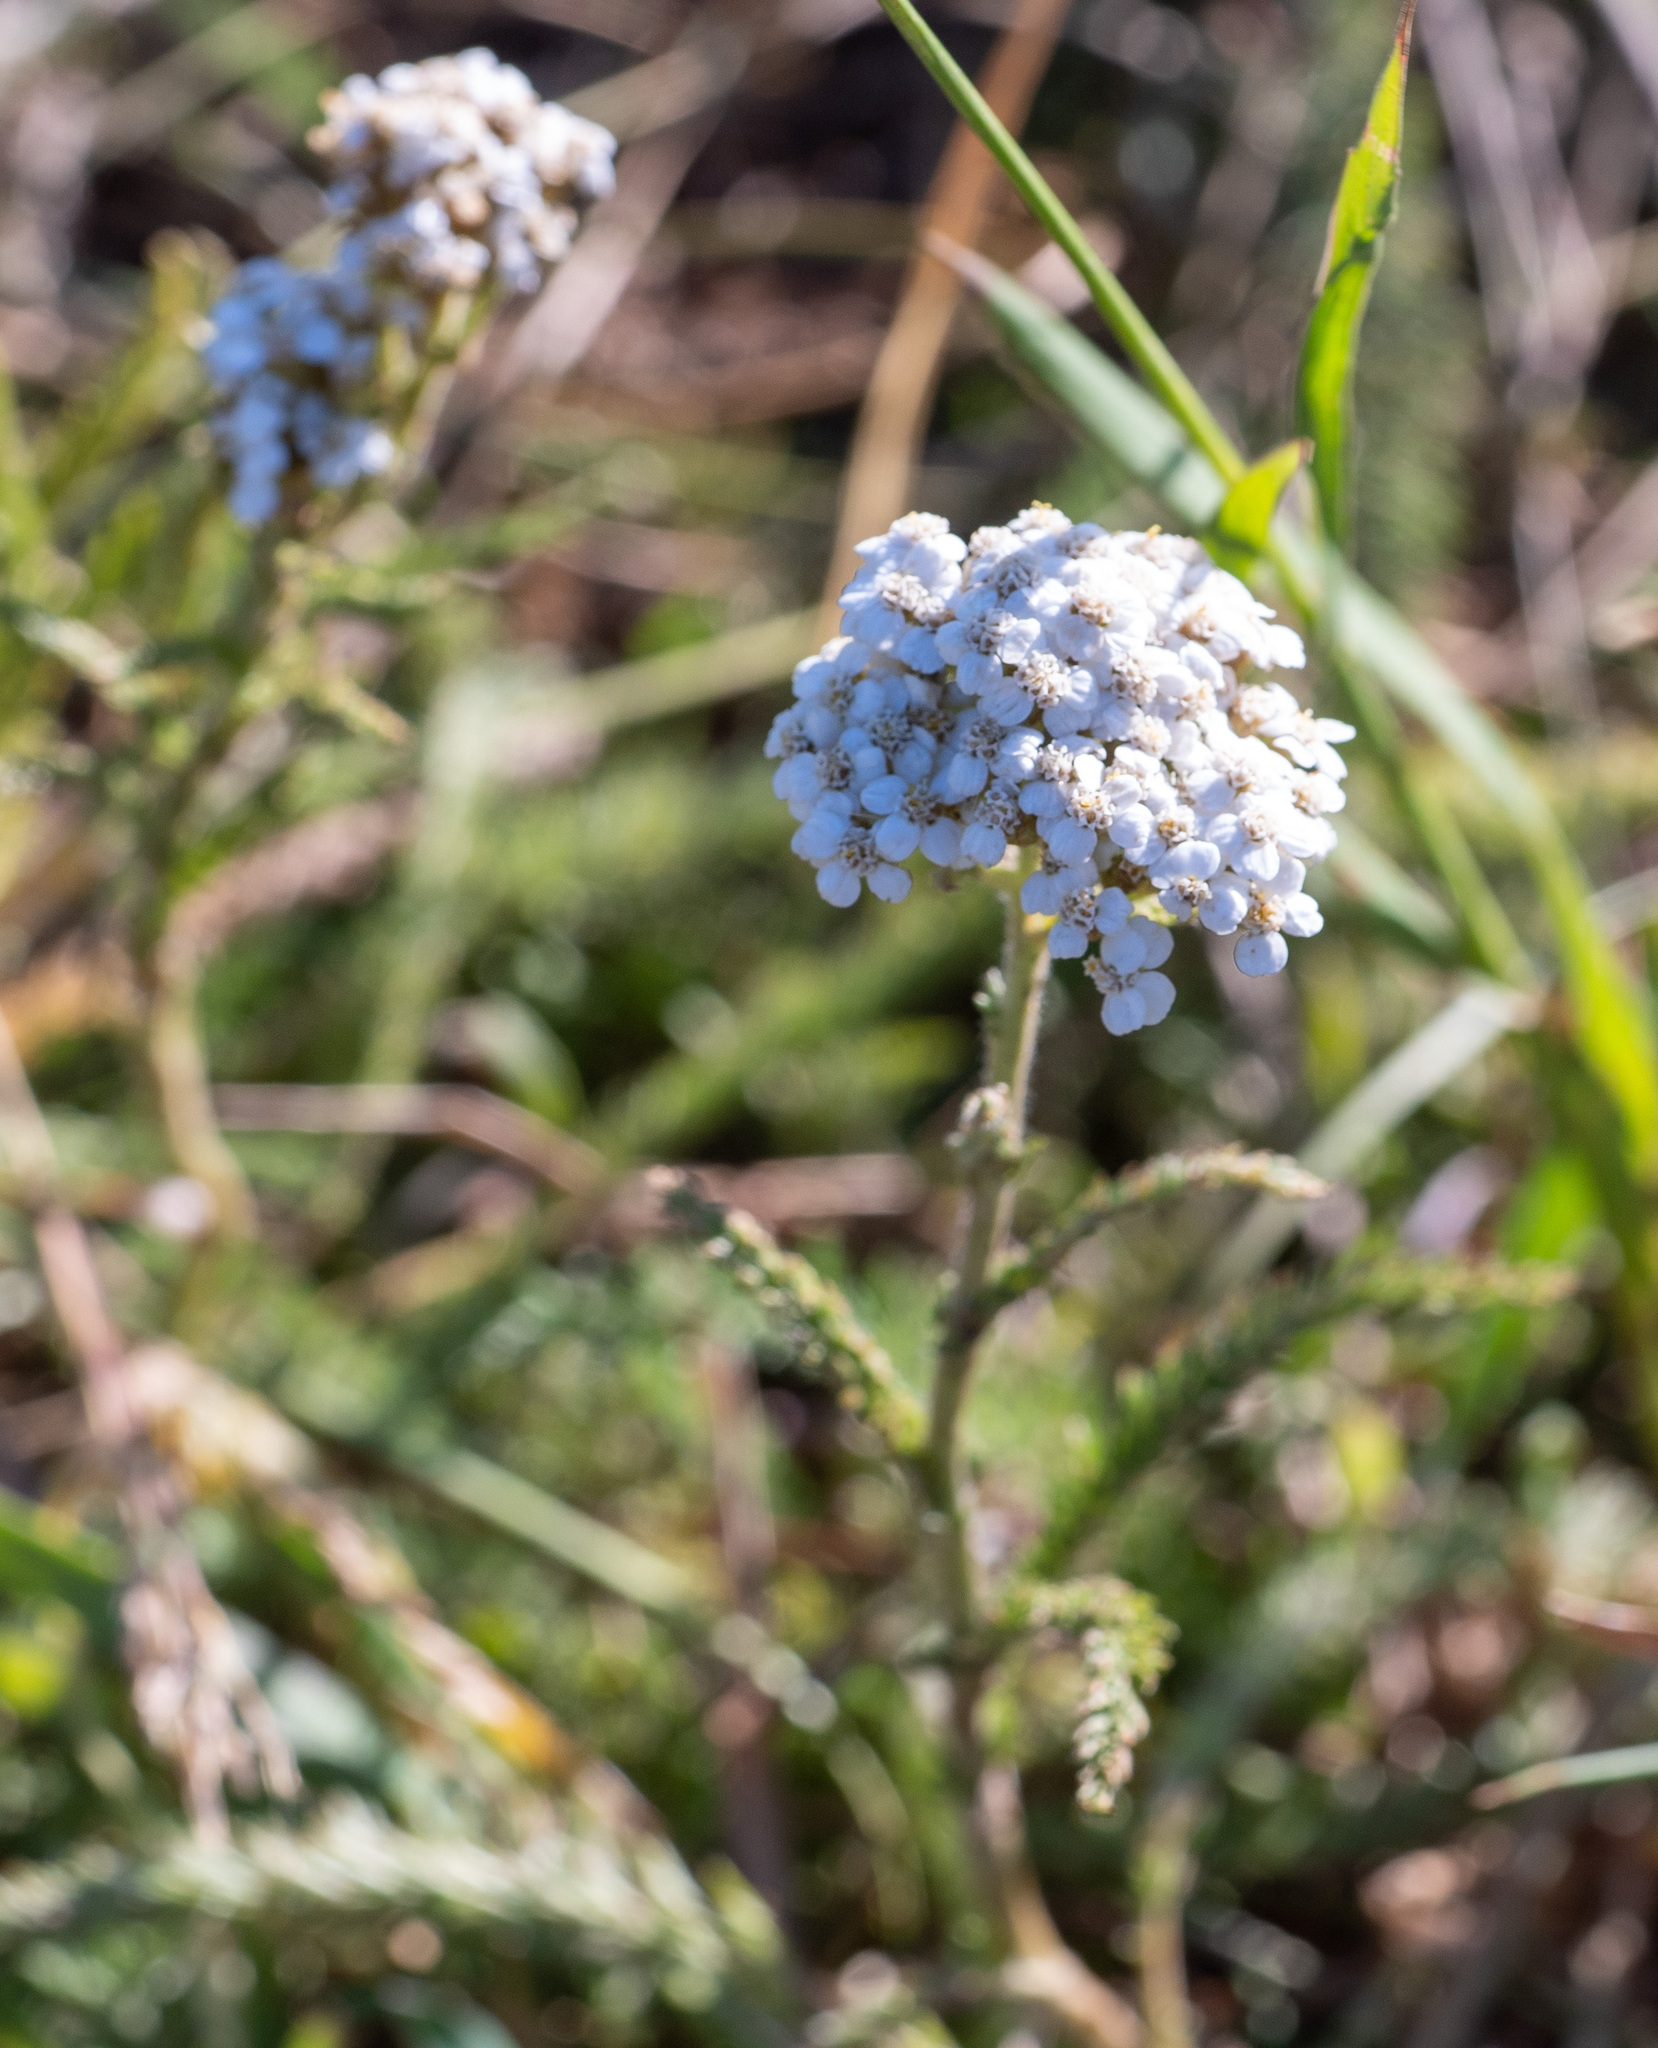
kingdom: Plantae
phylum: Tracheophyta
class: Magnoliopsida
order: Asterales
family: Asteraceae
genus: Achillea
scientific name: Achillea millefolium
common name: Yarrow
